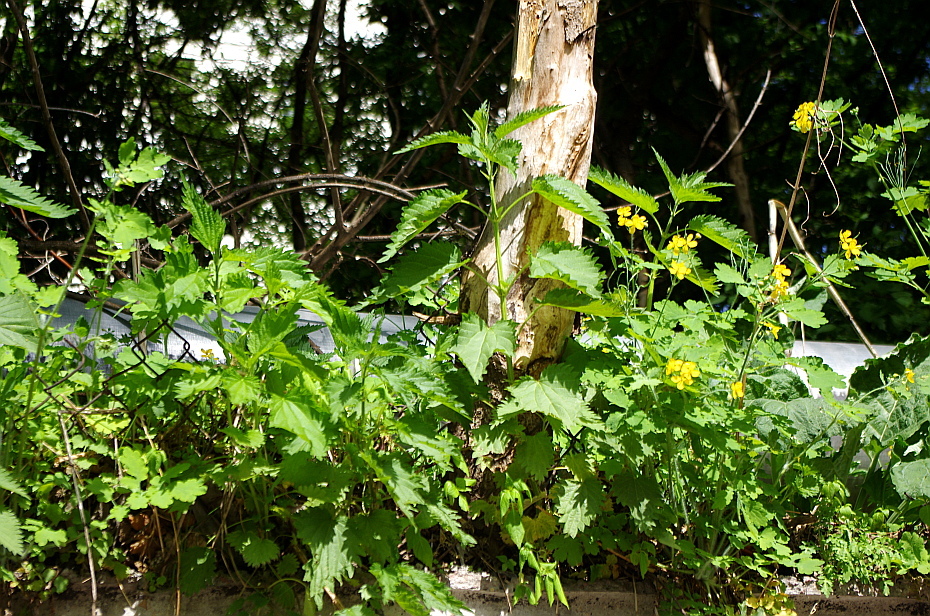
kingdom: Plantae
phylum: Tracheophyta
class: Magnoliopsida
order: Rosales
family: Urticaceae
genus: Urtica
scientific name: Urtica dioica
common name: Common nettle
